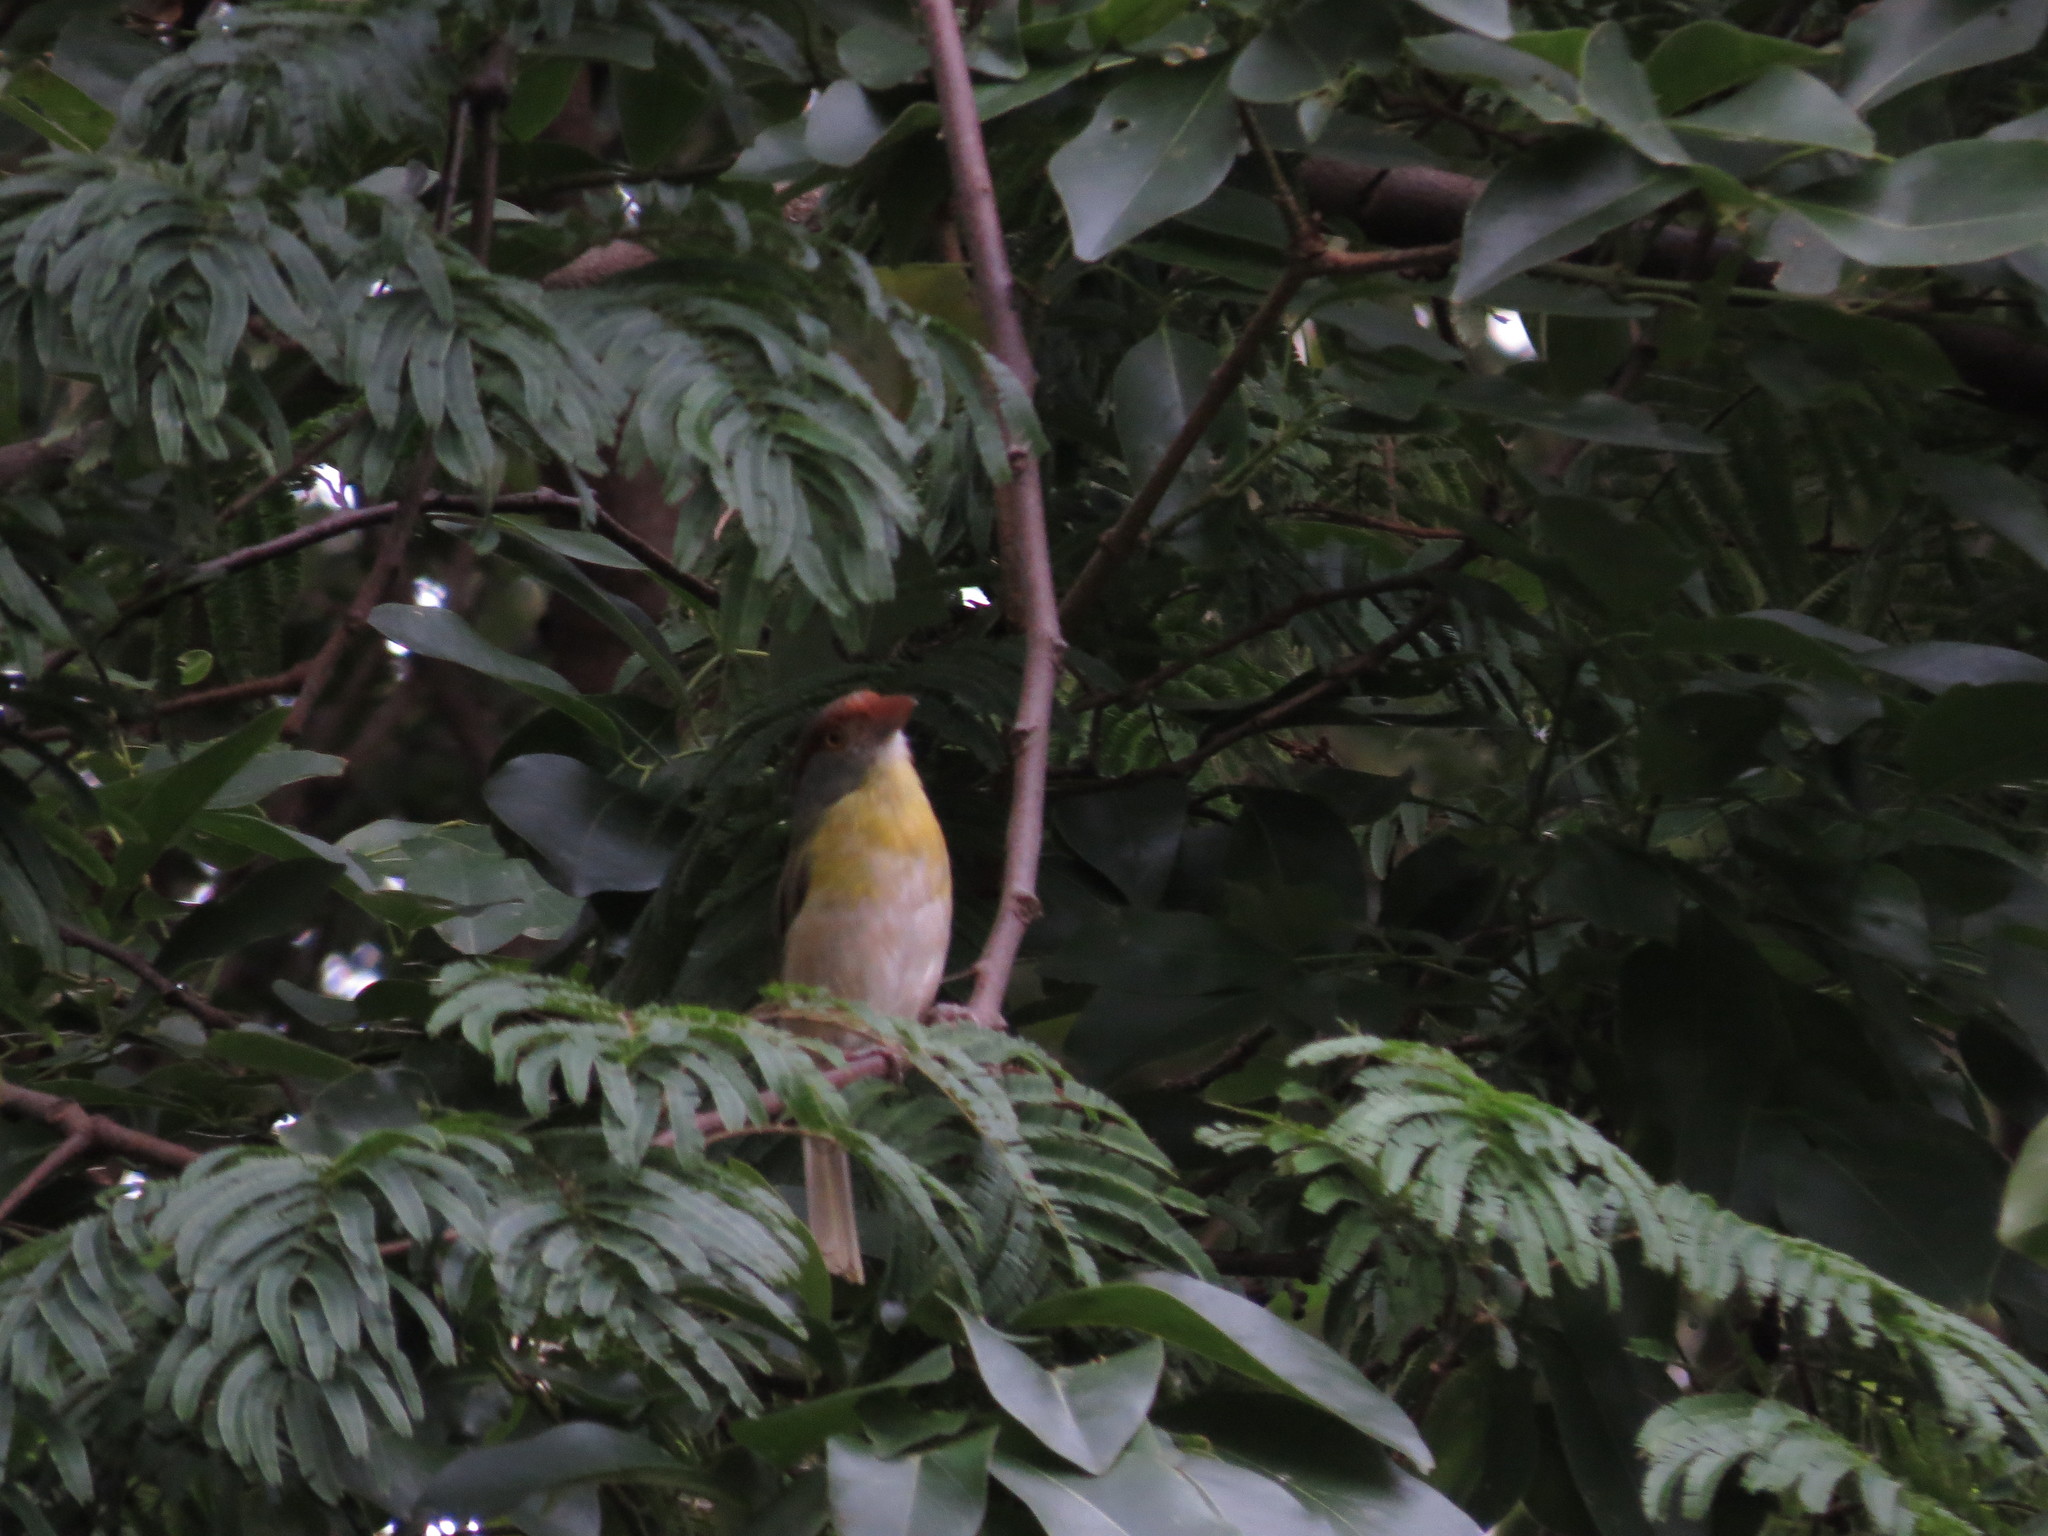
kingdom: Animalia
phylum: Chordata
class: Aves
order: Passeriformes
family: Vireonidae
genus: Cyclarhis
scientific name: Cyclarhis gujanensis
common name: Rufous-browed peppershrike
